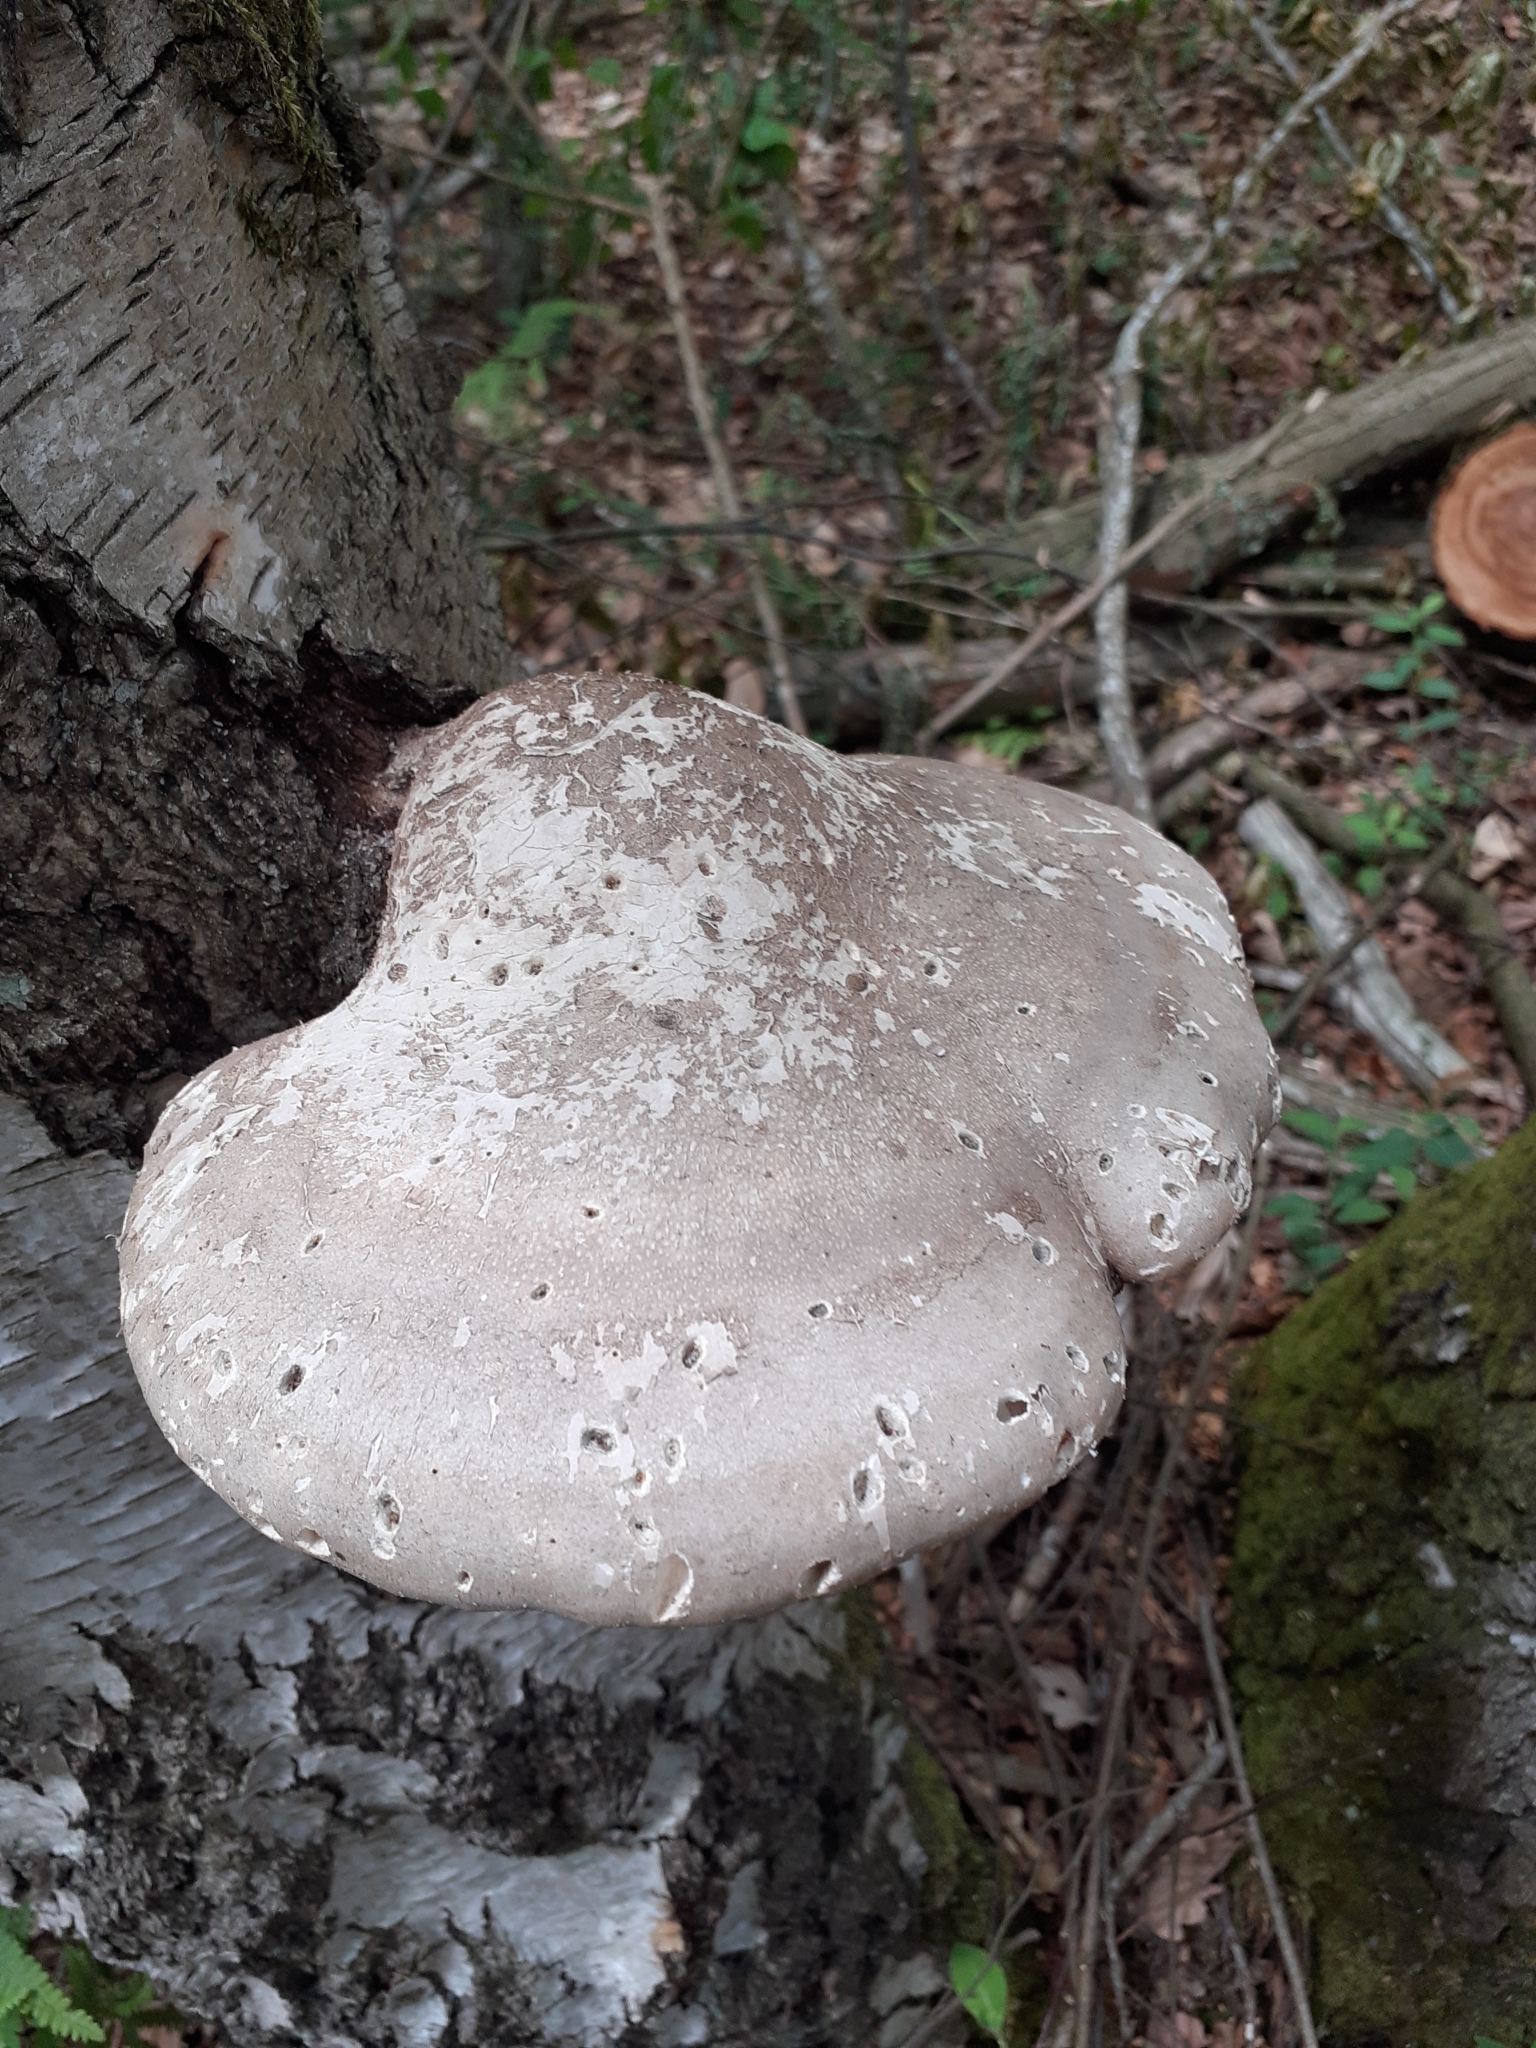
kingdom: Fungi
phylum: Basidiomycota
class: Agaricomycetes
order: Polyporales
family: Fomitopsidaceae
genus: Fomitopsis
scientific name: Fomitopsis betulina
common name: Birch polypore
